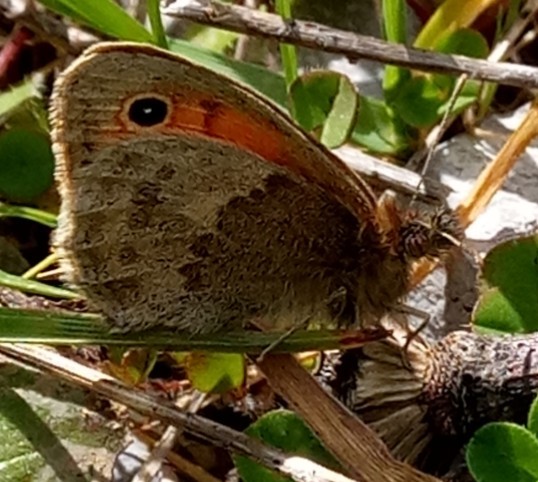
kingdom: Animalia
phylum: Arthropoda
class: Insecta
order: Lepidoptera
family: Nymphalidae
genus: Coenonympha
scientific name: Coenonympha pamphilus
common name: Small heath
